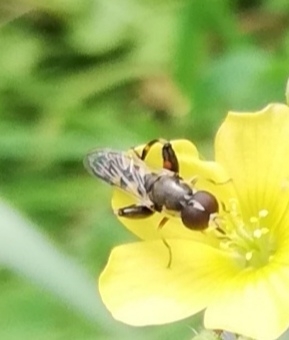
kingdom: Animalia
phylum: Arthropoda
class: Insecta
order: Diptera
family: Syrphidae
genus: Syritta
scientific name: Syritta pipiens
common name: Hover fly
